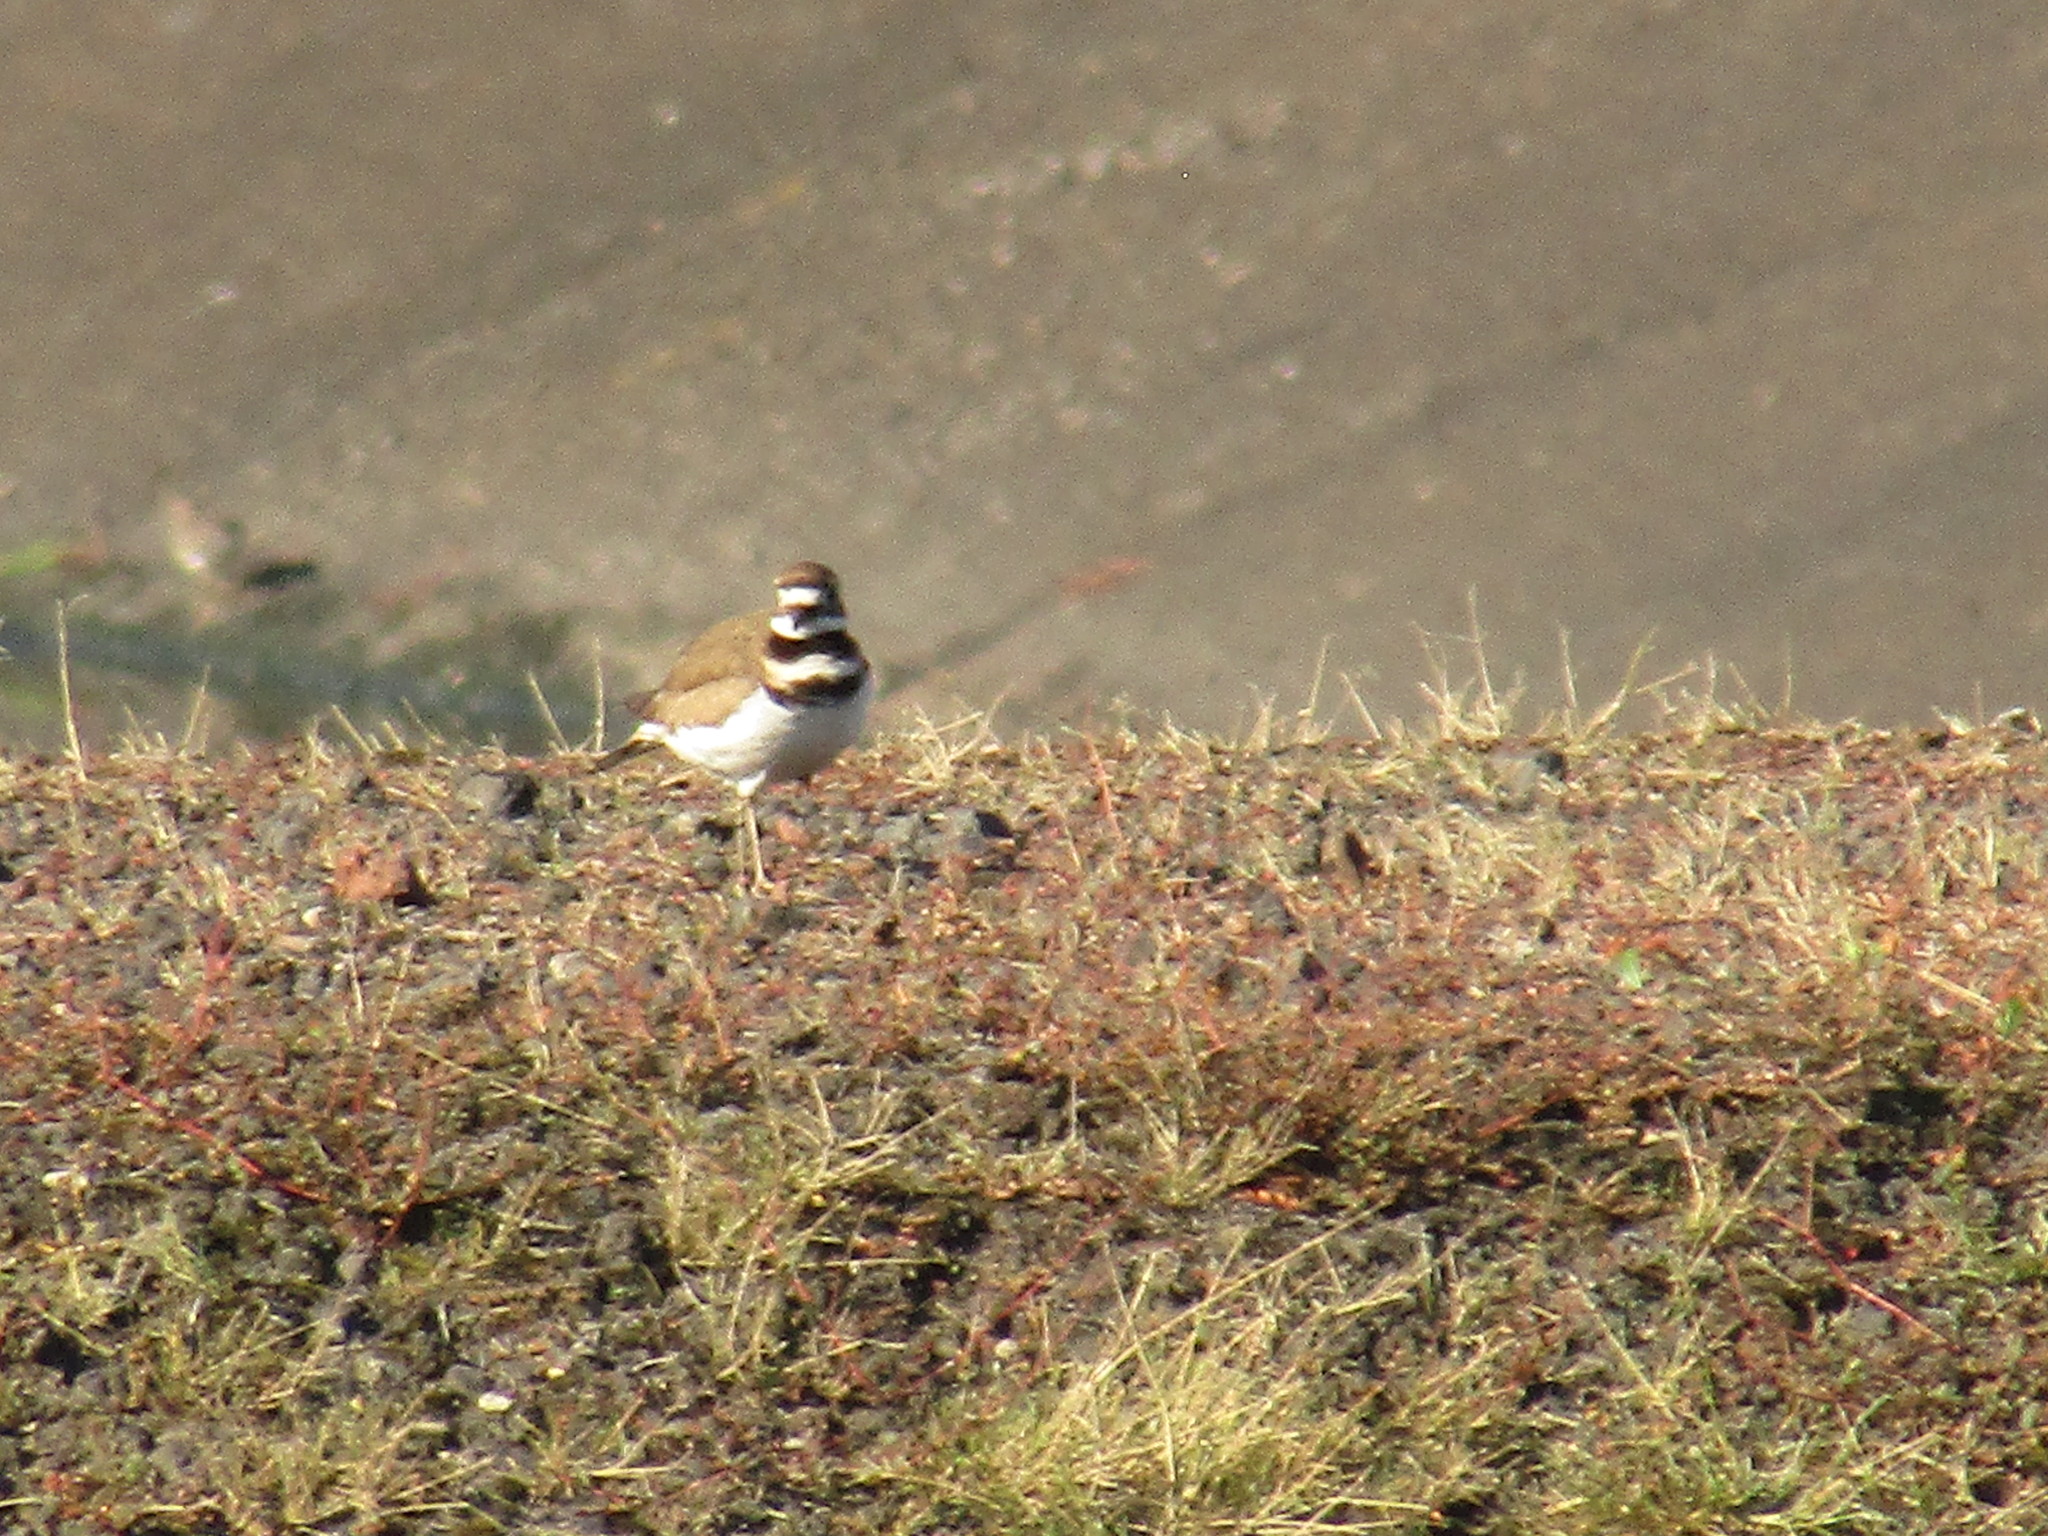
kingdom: Animalia
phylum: Chordata
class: Aves
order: Charadriiformes
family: Charadriidae
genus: Charadrius
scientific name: Charadrius vociferus
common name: Killdeer
